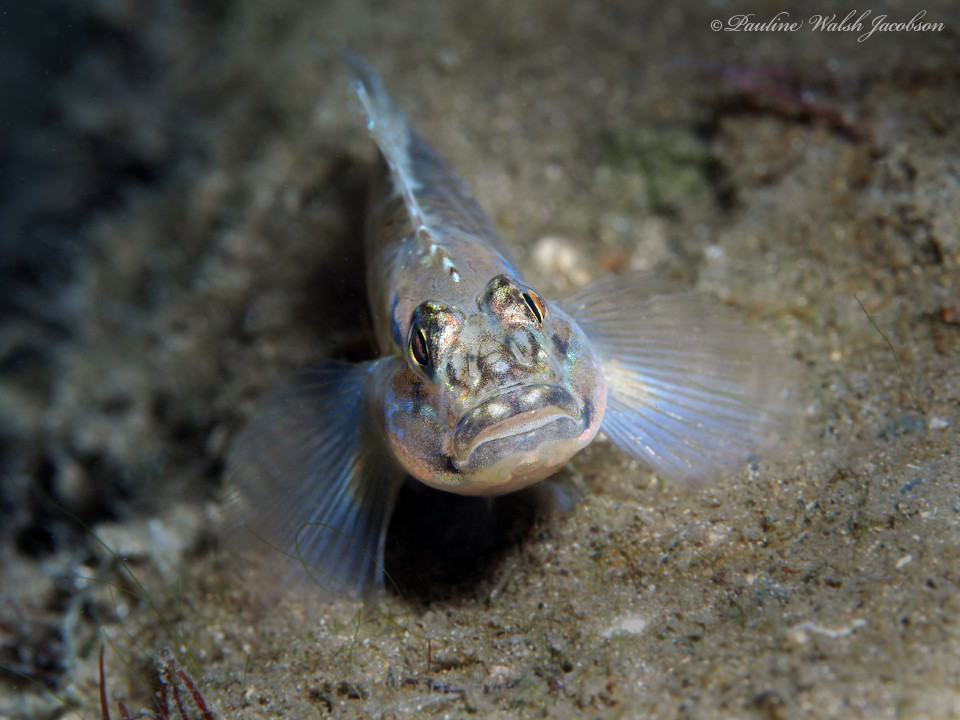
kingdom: Animalia
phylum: Chordata
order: Perciformes
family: Gobiidae
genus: Coryphopterus
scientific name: Coryphopterus dicrus
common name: Colon goby
